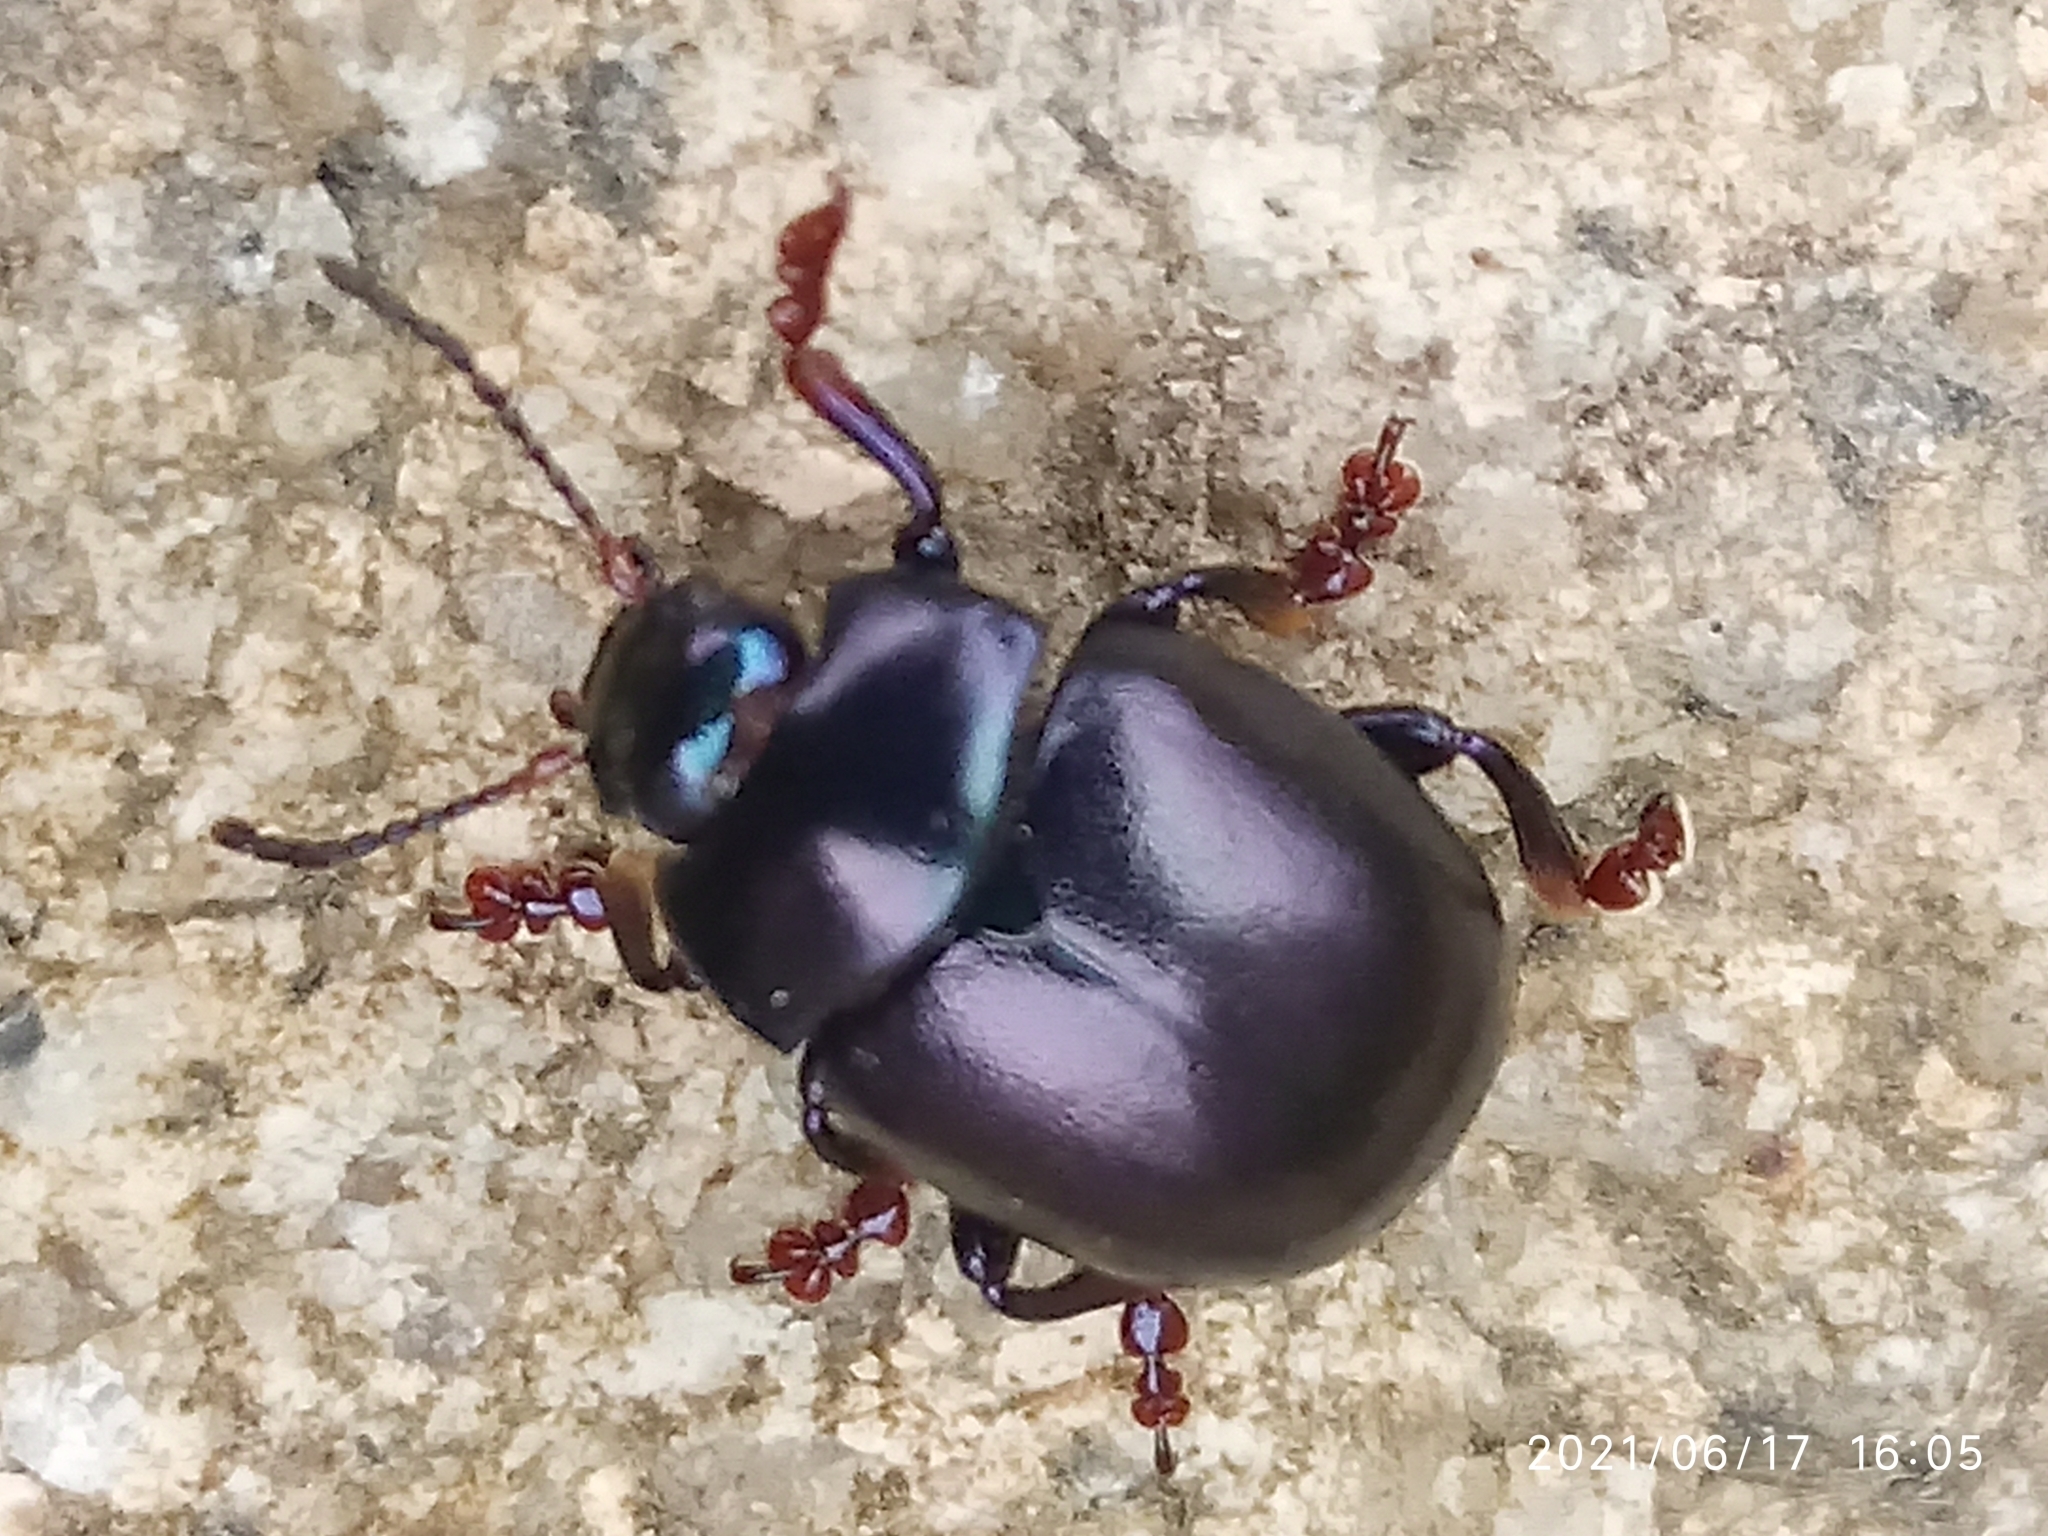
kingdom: Animalia
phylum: Arthropoda
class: Insecta
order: Coleoptera
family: Chrysomelidae
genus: Chrysolina
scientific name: Chrysolina sturmi
